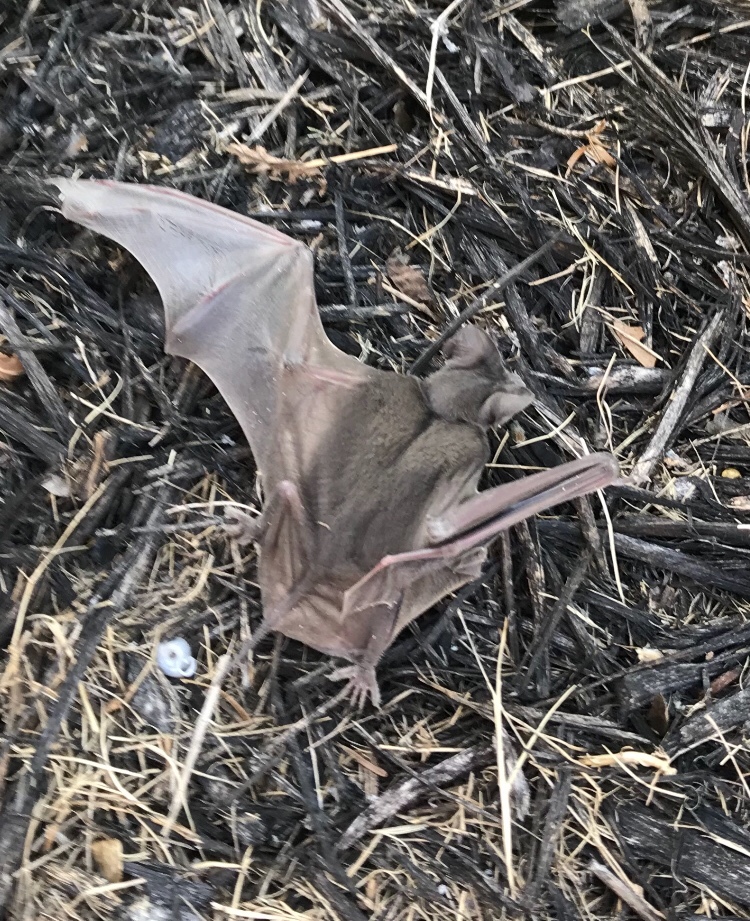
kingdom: Animalia
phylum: Chordata
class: Mammalia
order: Chiroptera
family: Molossidae
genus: Tadarida
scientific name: Tadarida brasiliensis
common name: Mexican free-tailed bat
